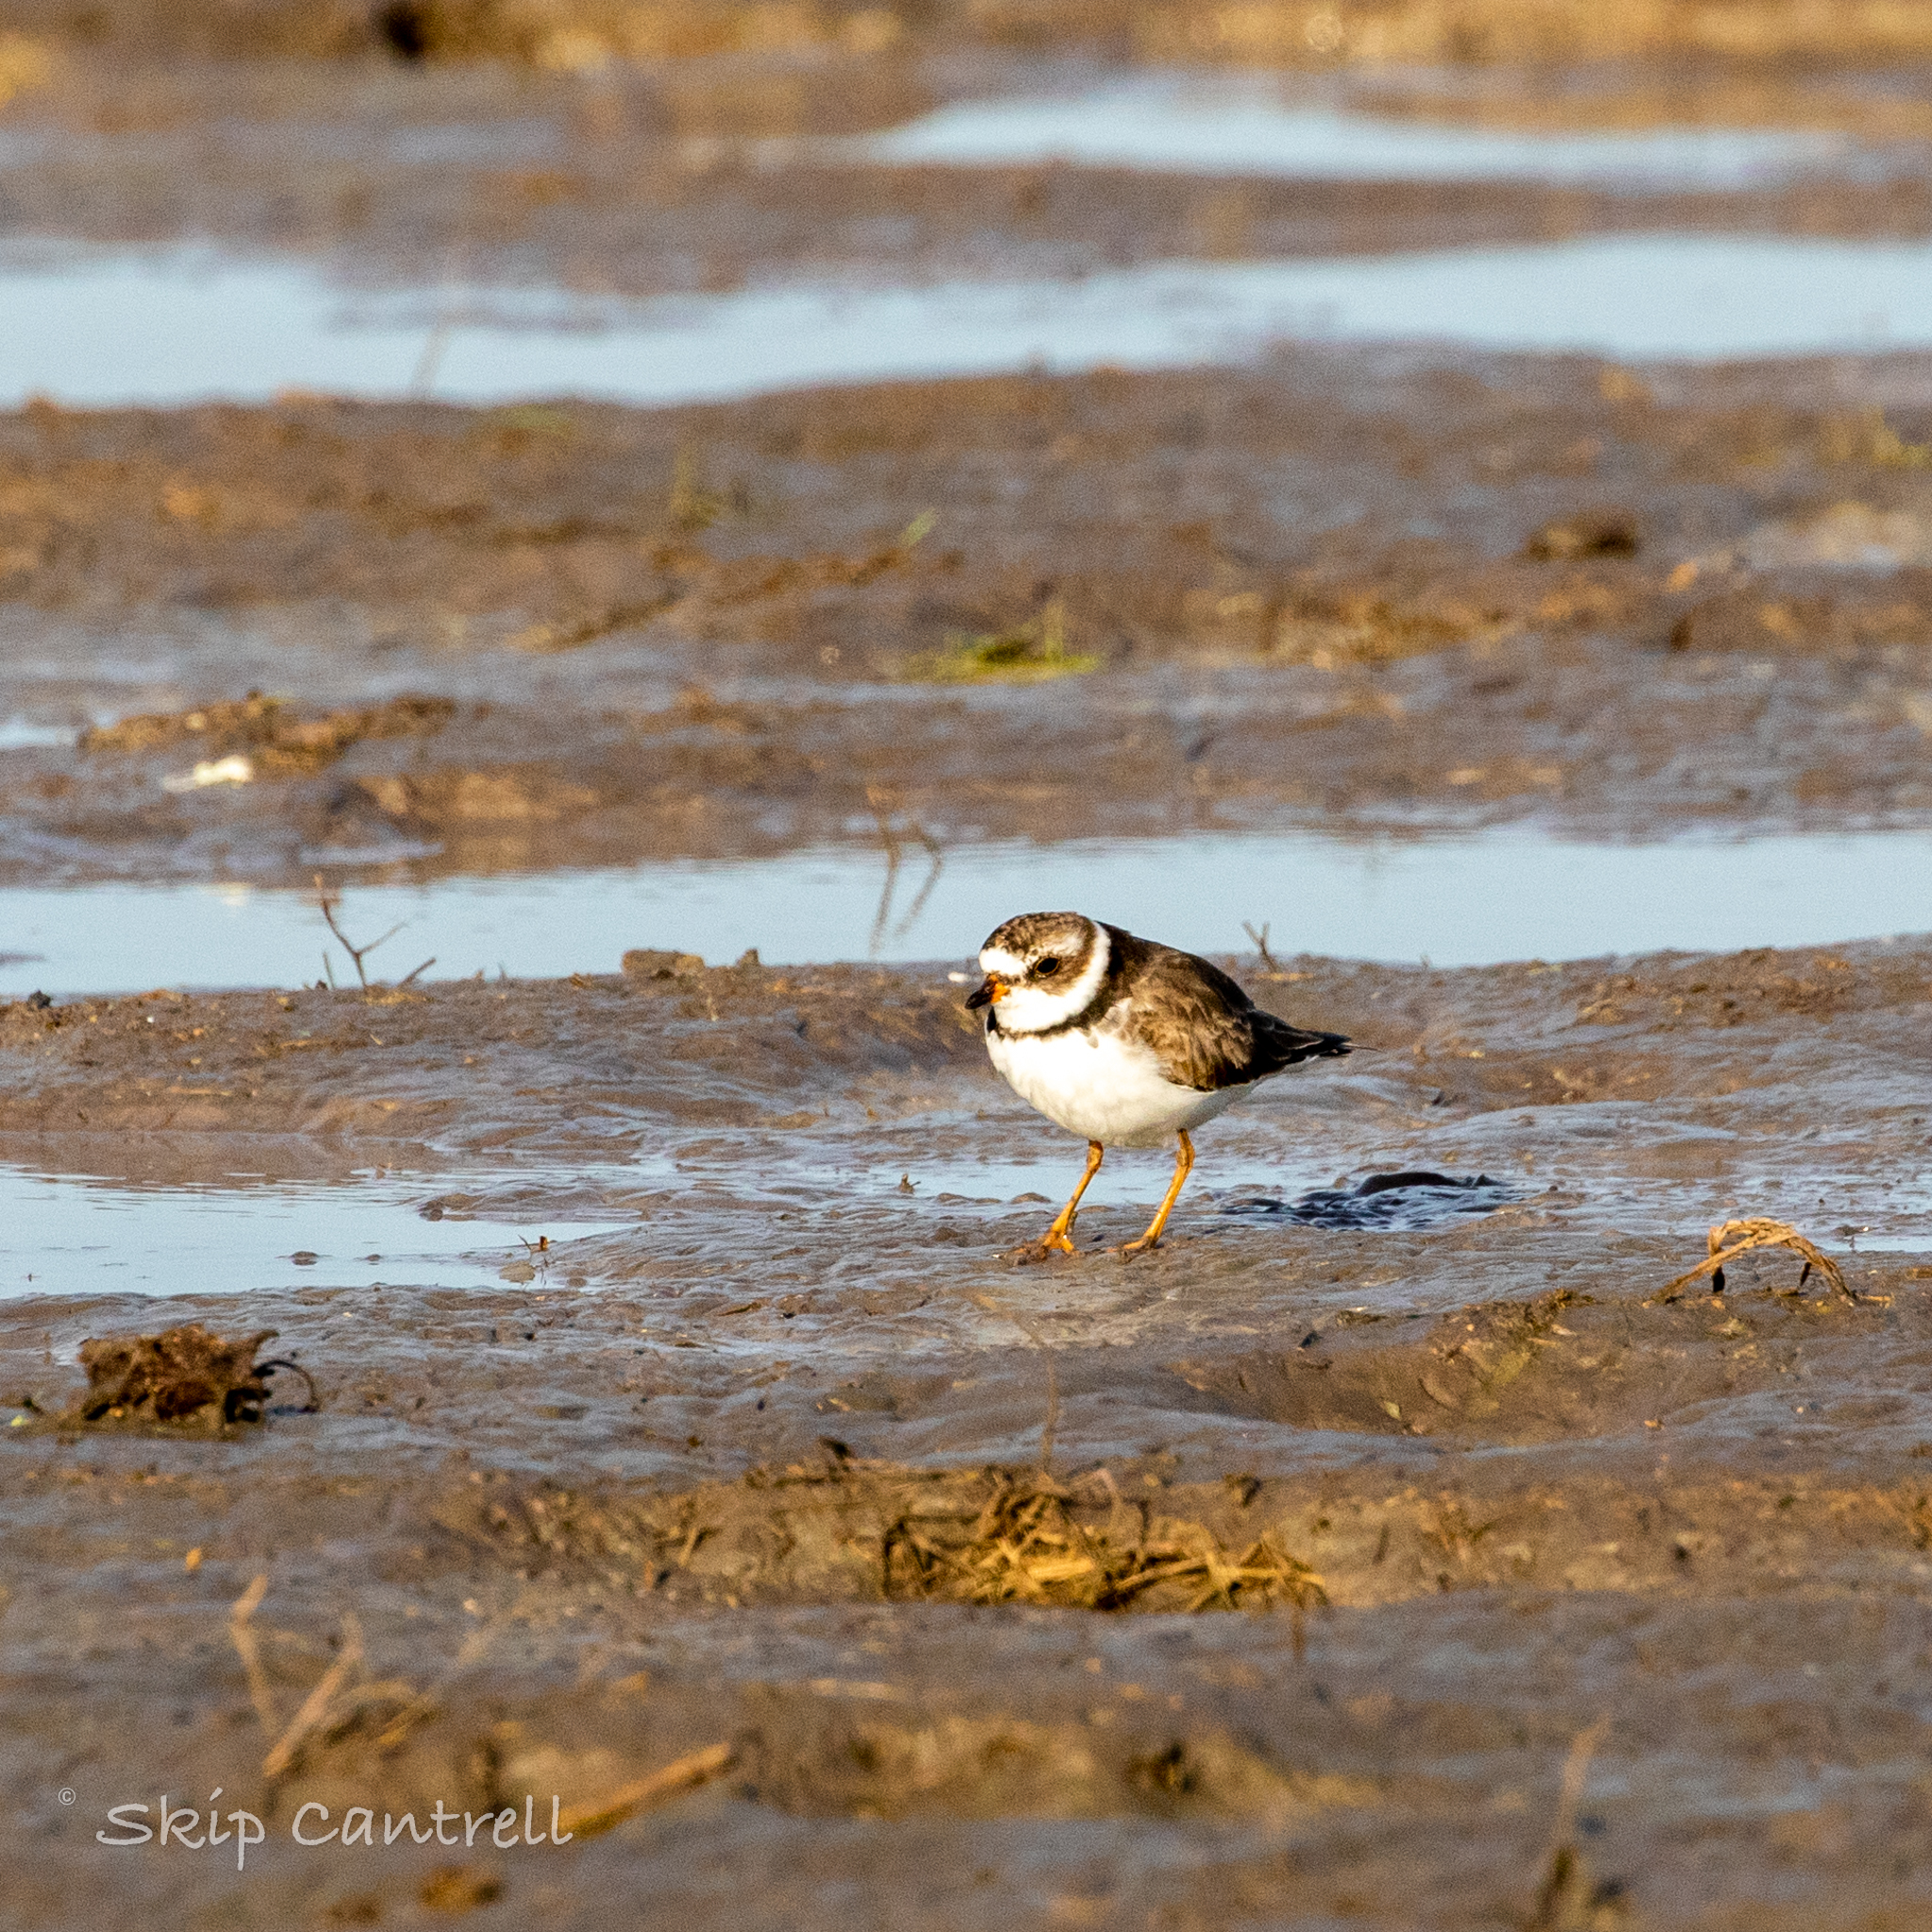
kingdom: Animalia
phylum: Chordata
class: Aves
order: Charadriiformes
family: Charadriidae
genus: Charadrius
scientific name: Charadrius semipalmatus
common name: Semipalmated plover
